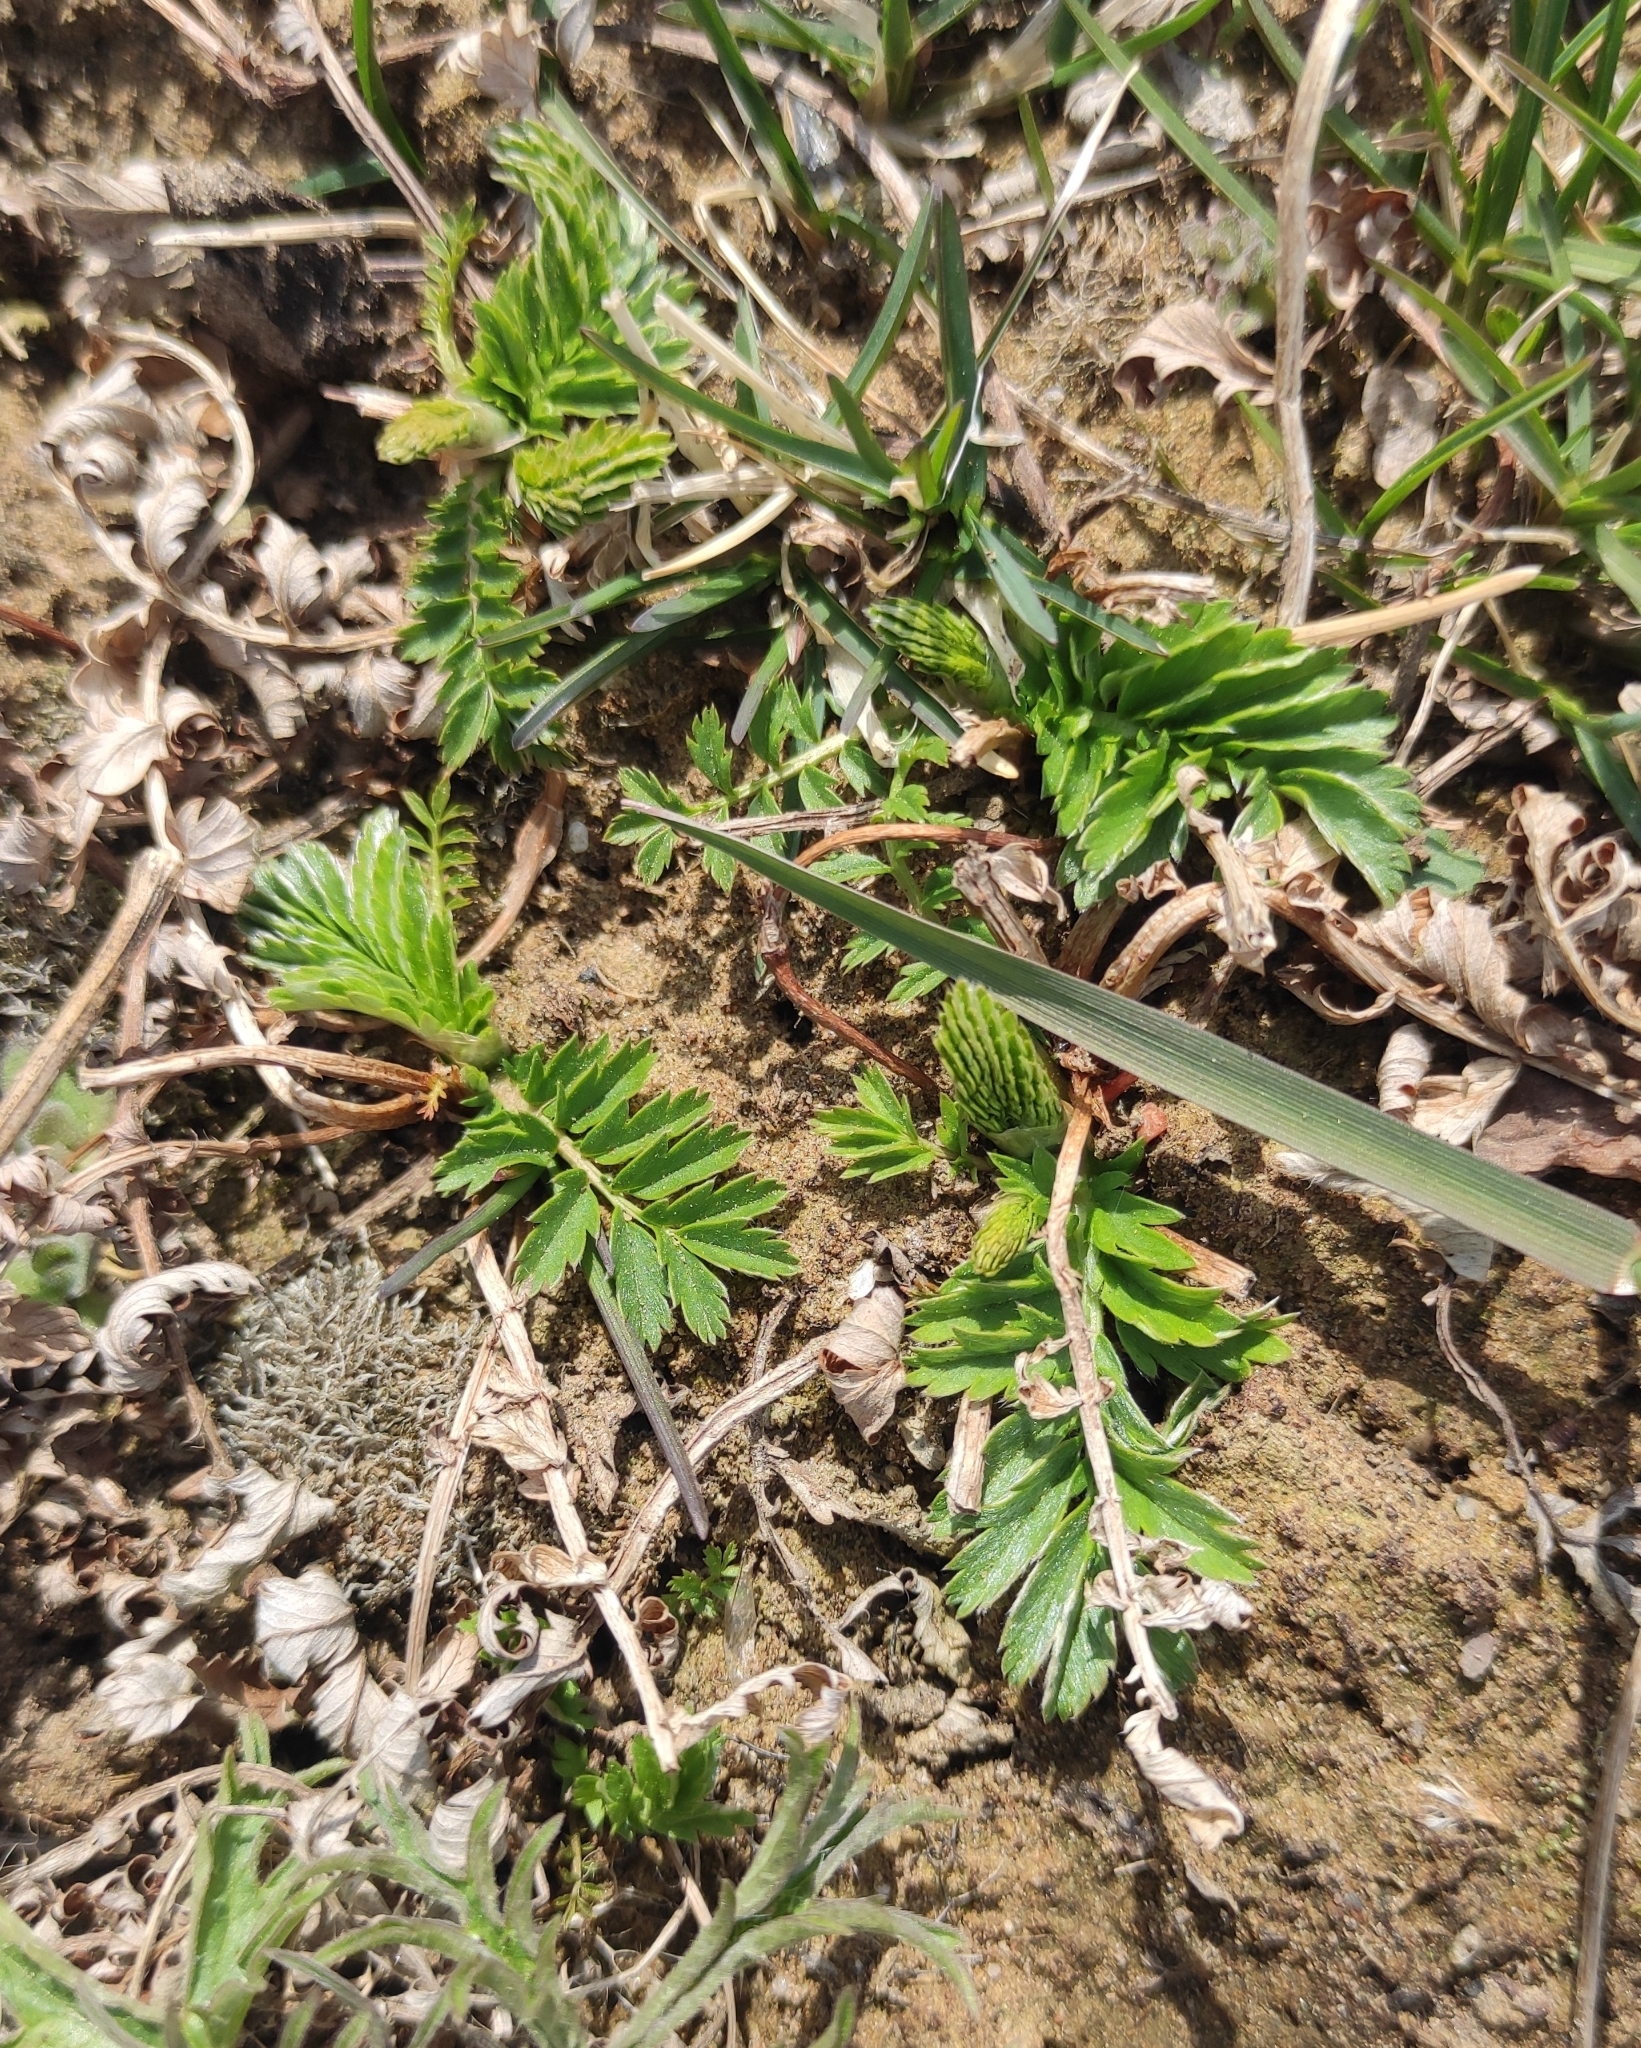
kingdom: Plantae
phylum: Tracheophyta
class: Magnoliopsida
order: Rosales
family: Rosaceae
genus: Argentina
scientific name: Argentina anserina
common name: Common silverweed
